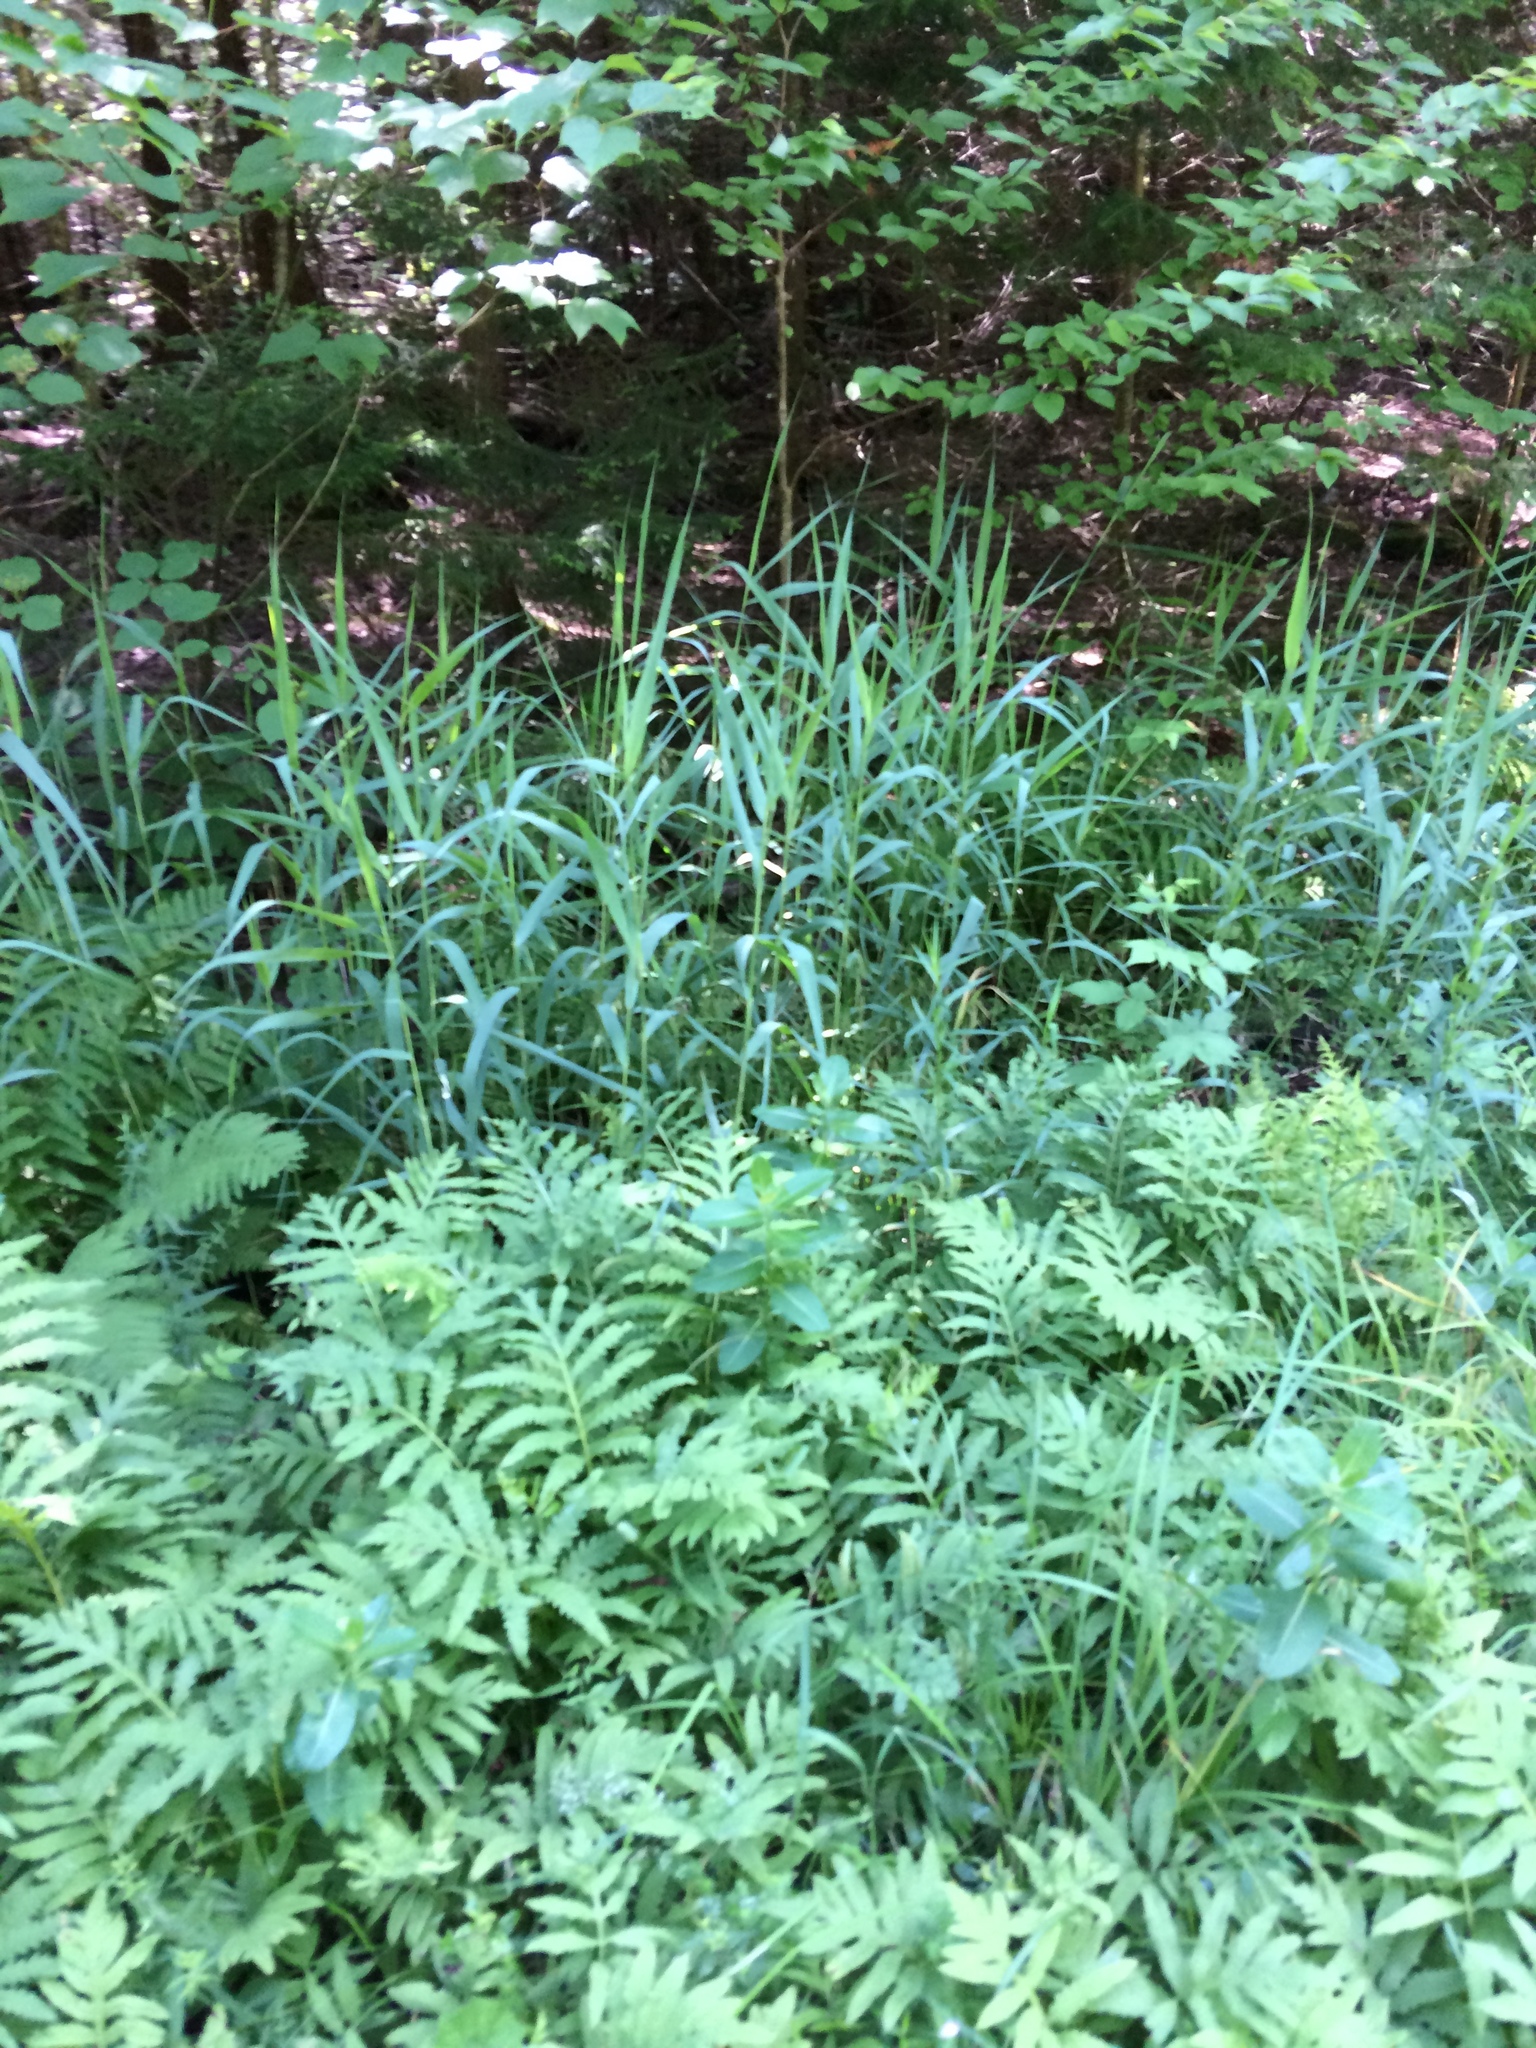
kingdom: Plantae
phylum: Tracheophyta
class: Liliopsida
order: Poales
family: Poaceae
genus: Phragmites
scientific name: Phragmites australis
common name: Common reed
